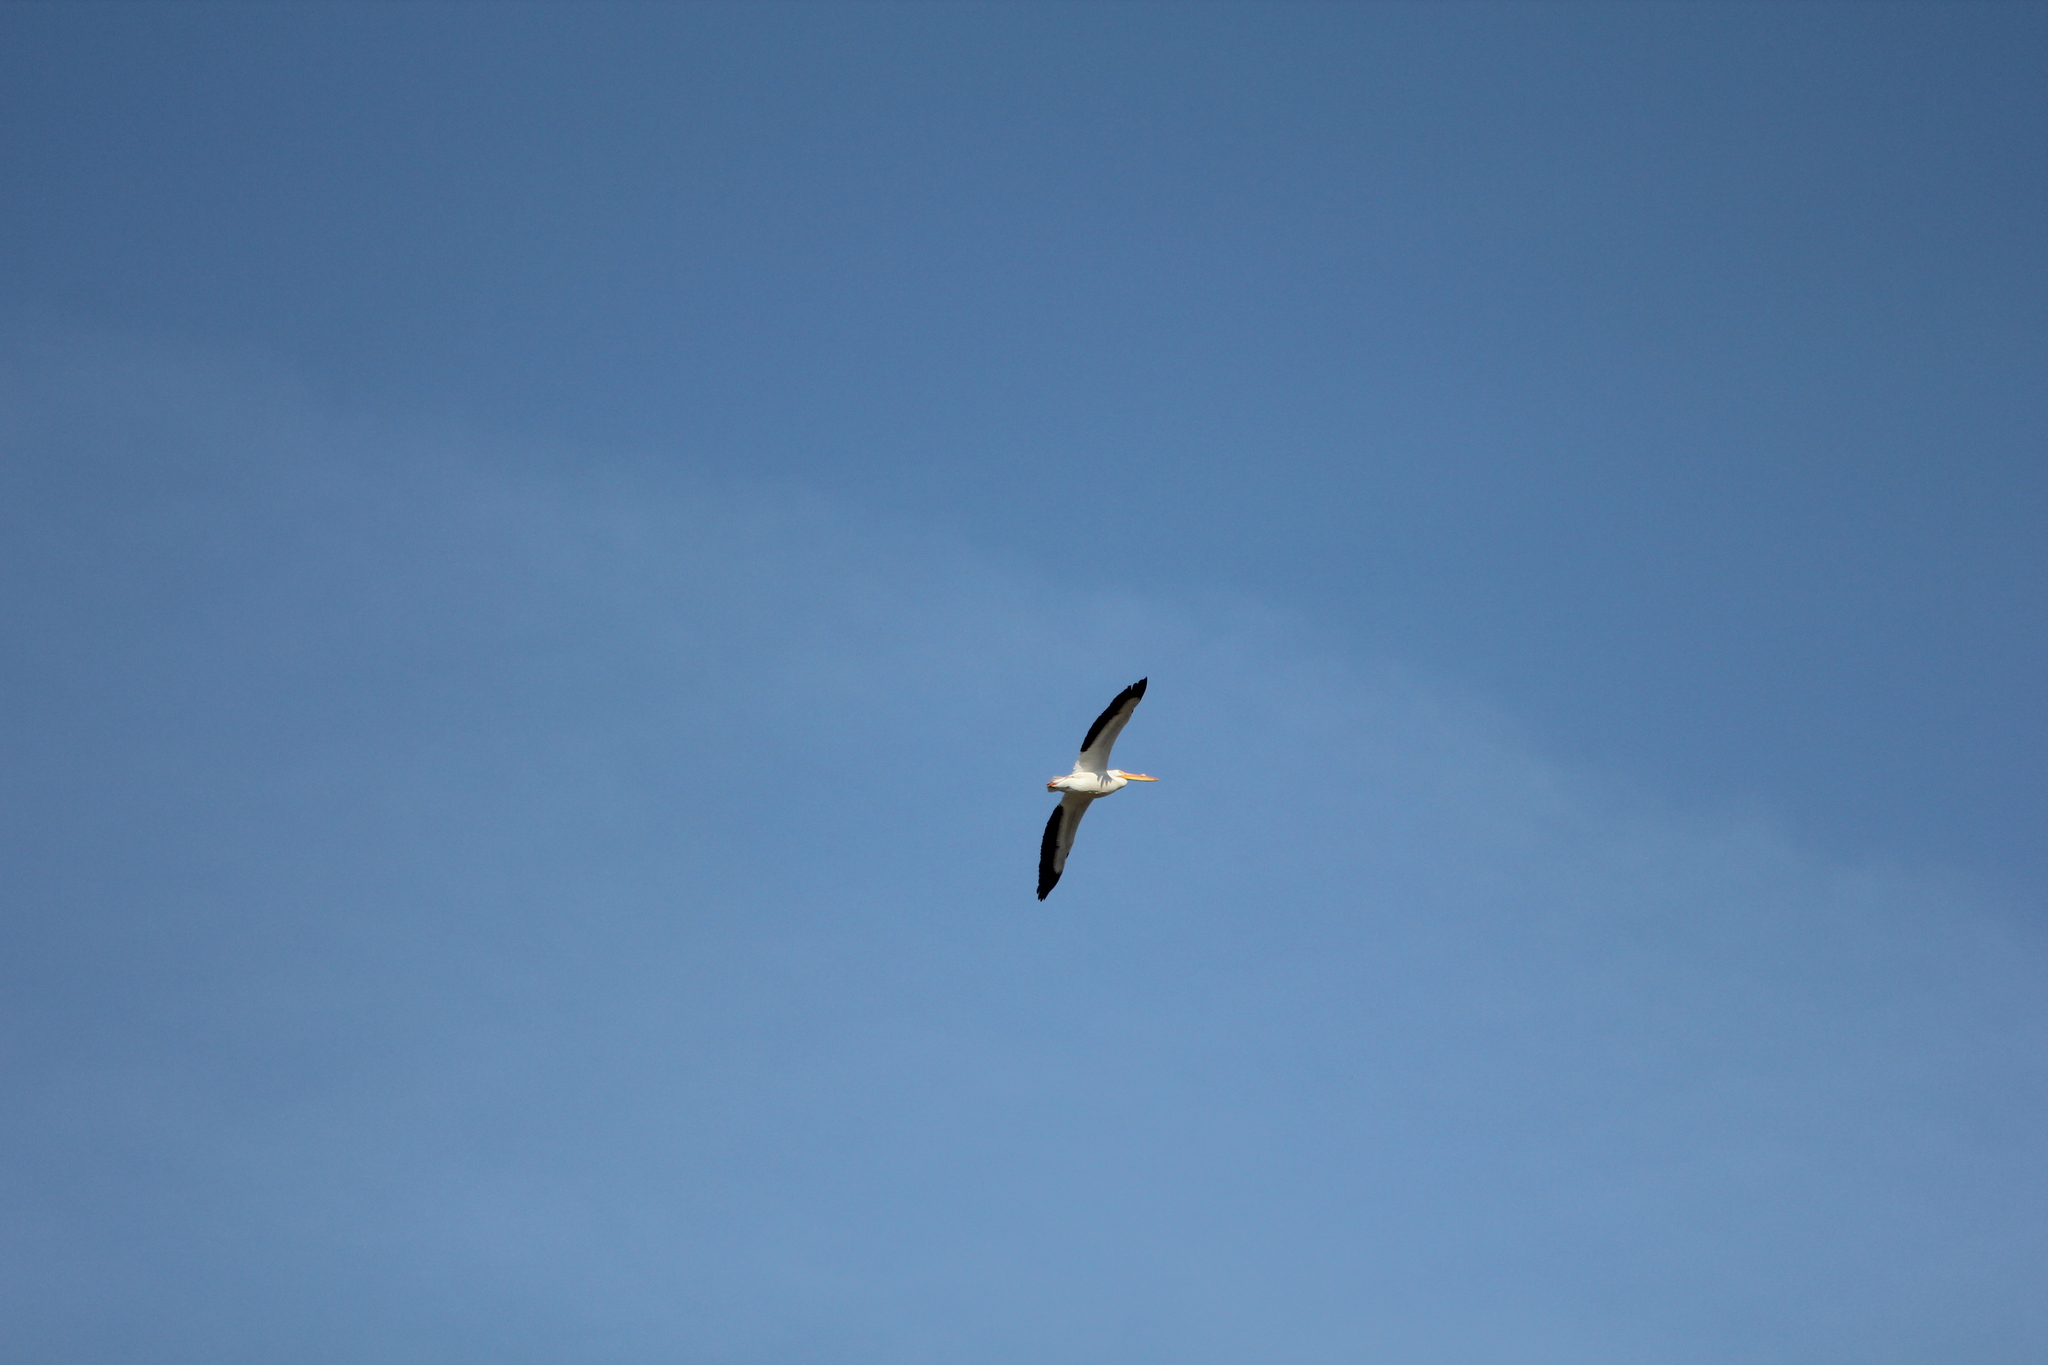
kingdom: Animalia
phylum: Chordata
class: Aves
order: Pelecaniformes
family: Pelecanidae
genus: Pelecanus
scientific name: Pelecanus erythrorhynchos
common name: American white pelican
